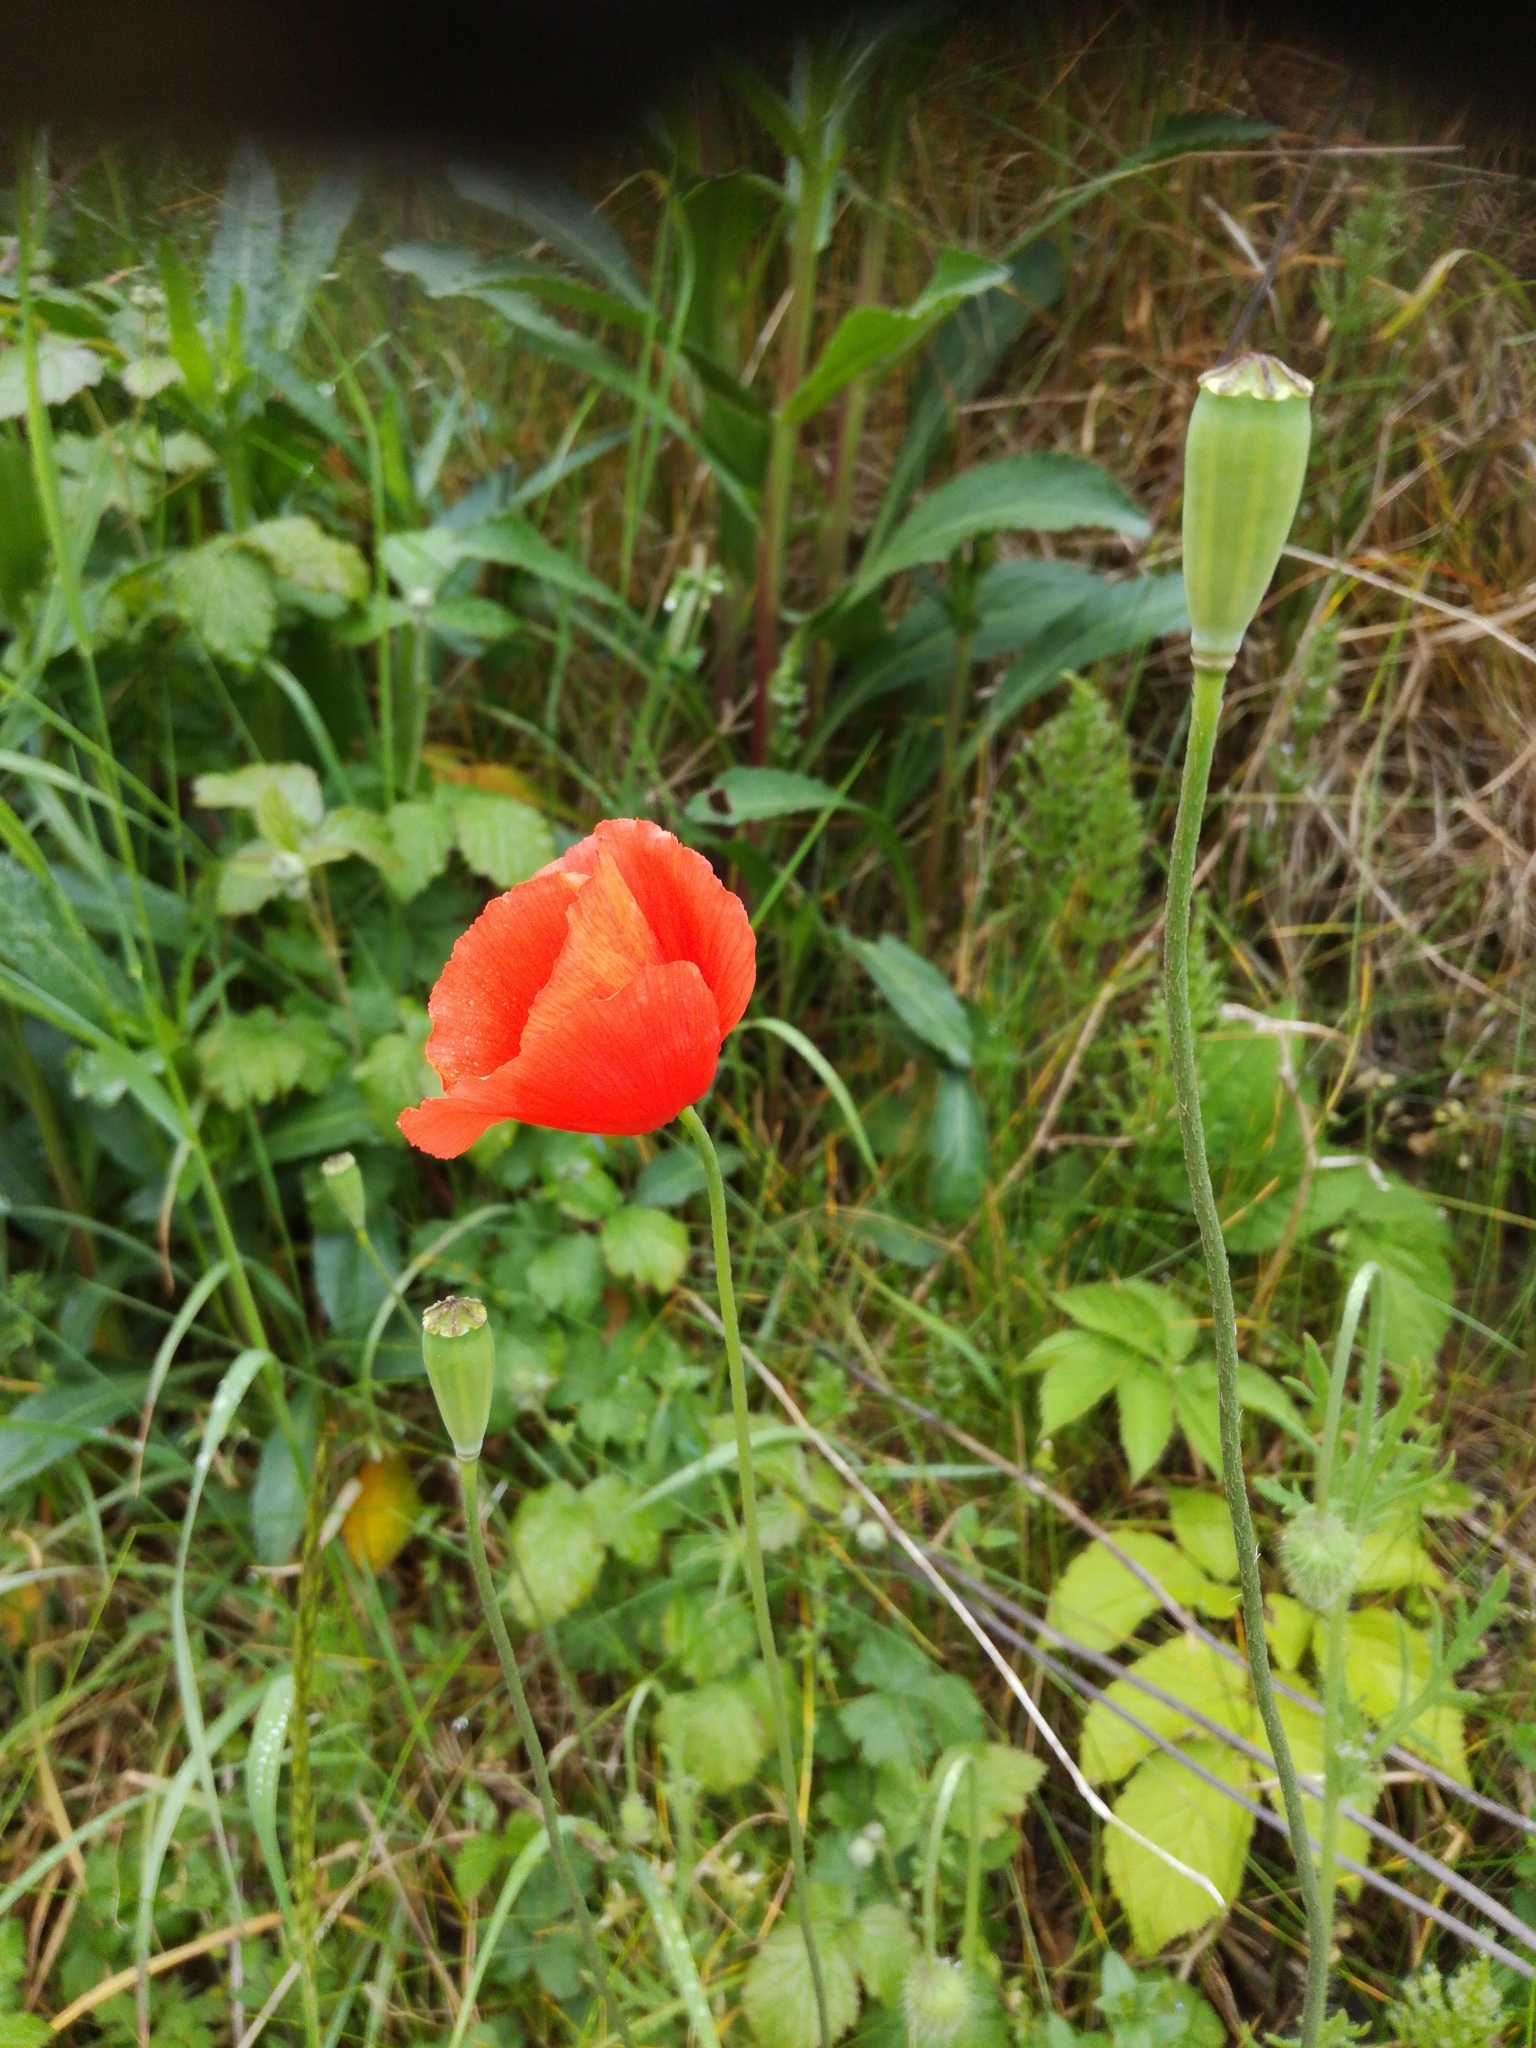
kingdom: Plantae
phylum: Tracheophyta
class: Magnoliopsida
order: Ranunculales
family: Papaveraceae
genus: Papaver
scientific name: Papaver rhoeas
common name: Corn poppy
